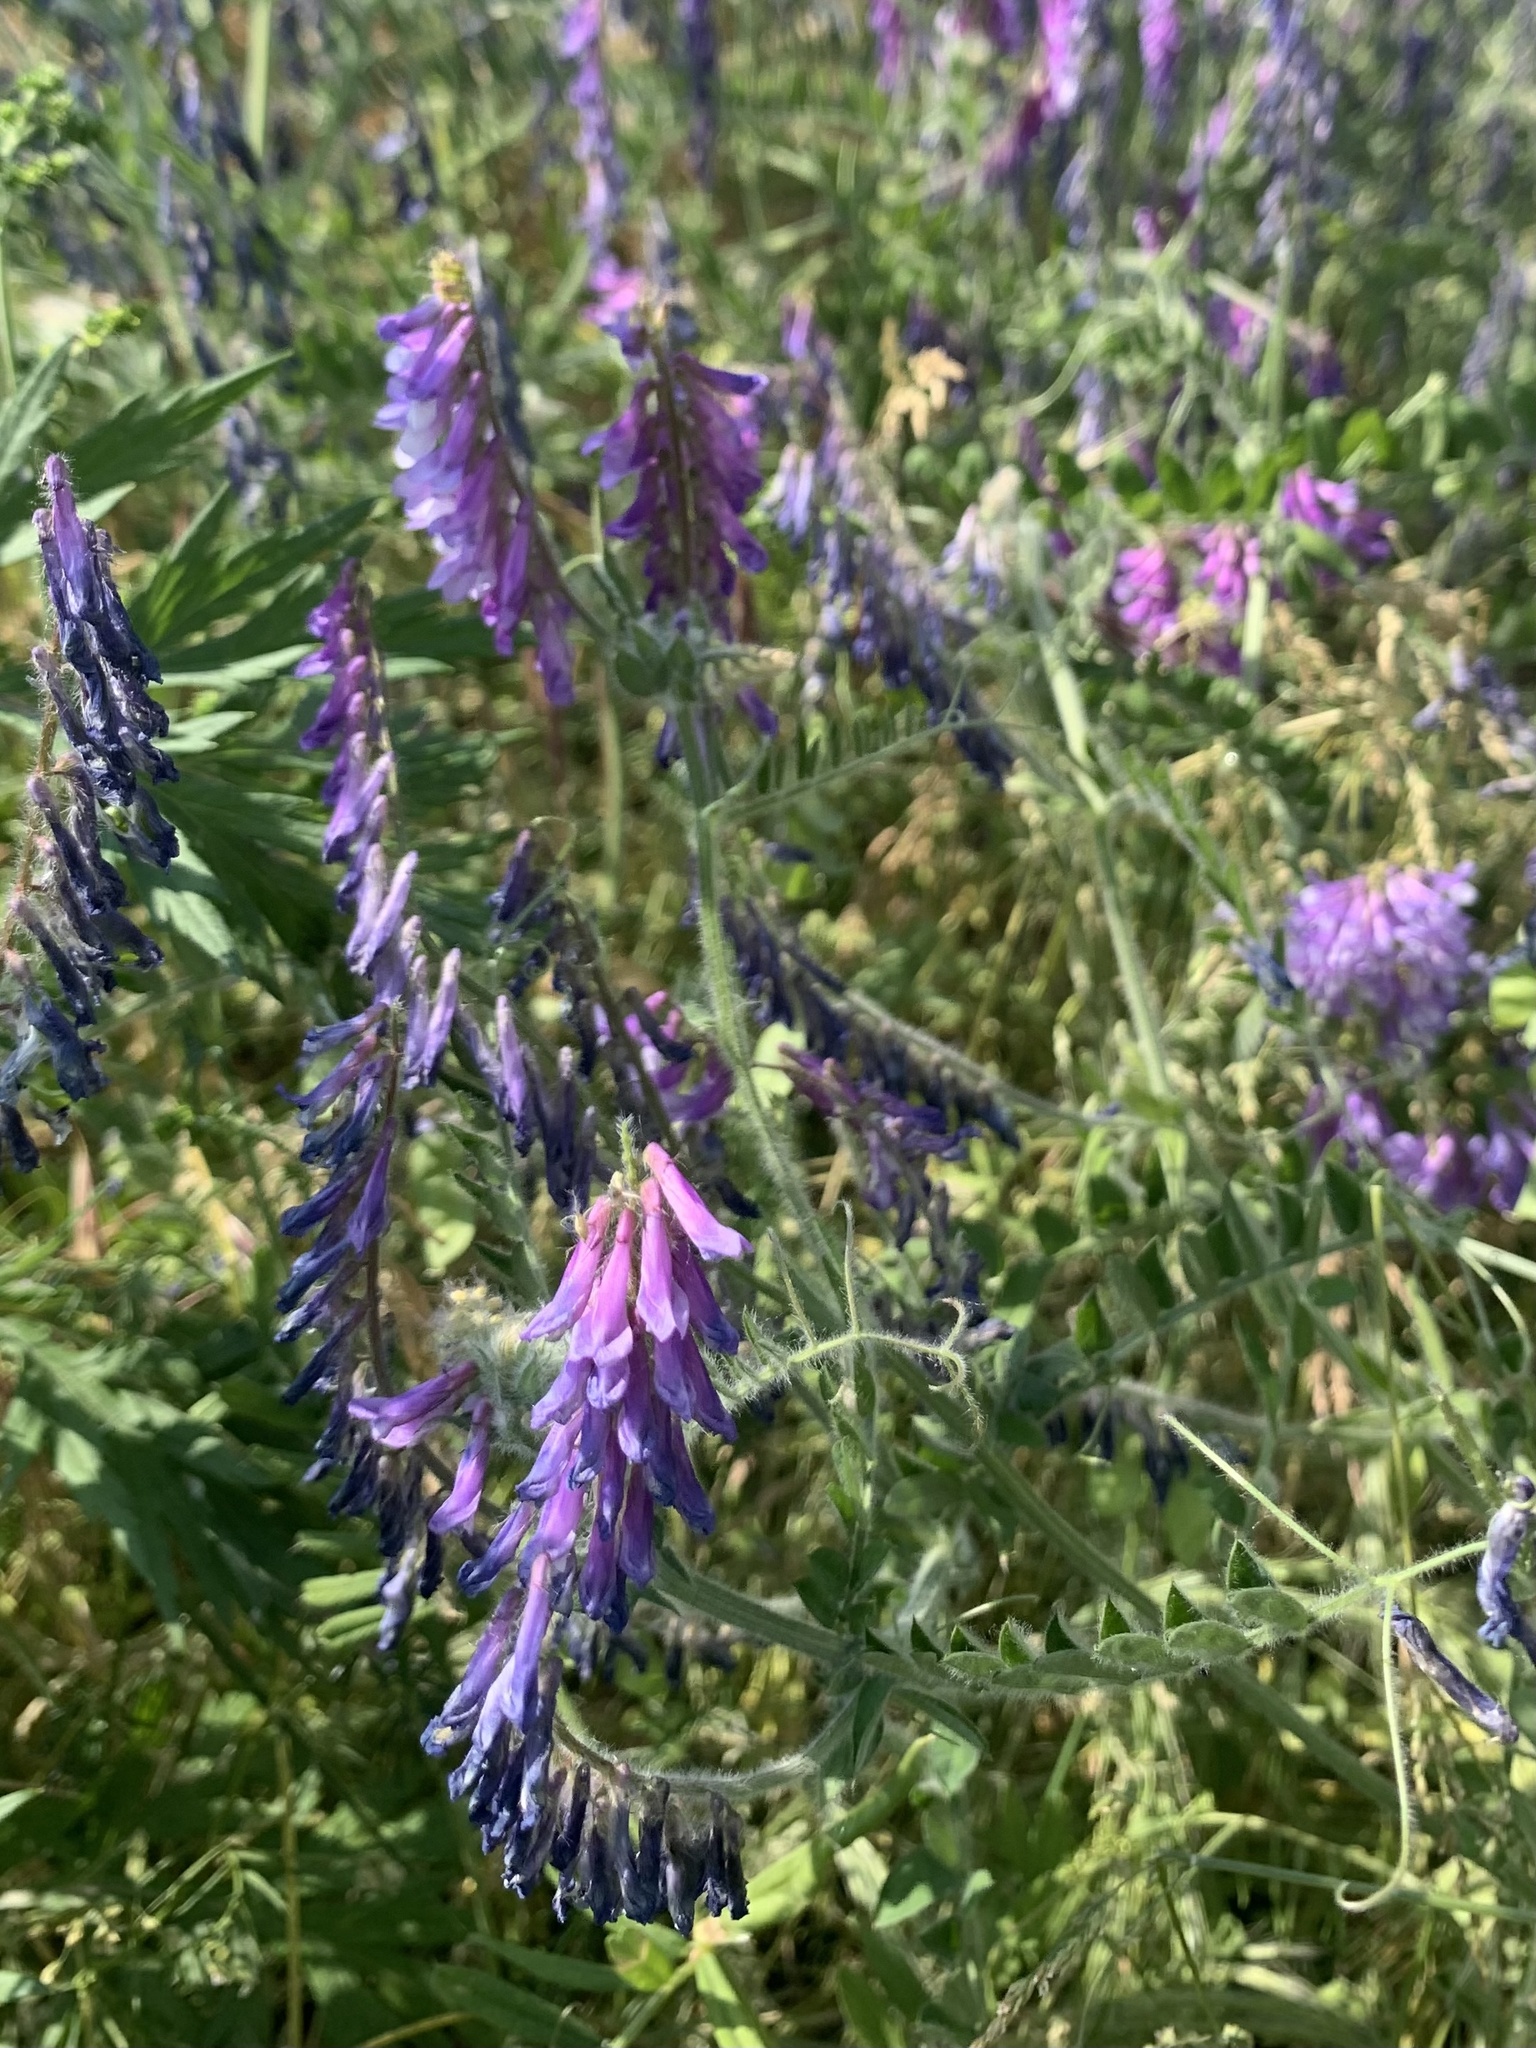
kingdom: Plantae
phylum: Tracheophyta
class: Magnoliopsida
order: Fabales
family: Fabaceae
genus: Vicia
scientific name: Vicia villosa
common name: Fodder vetch
